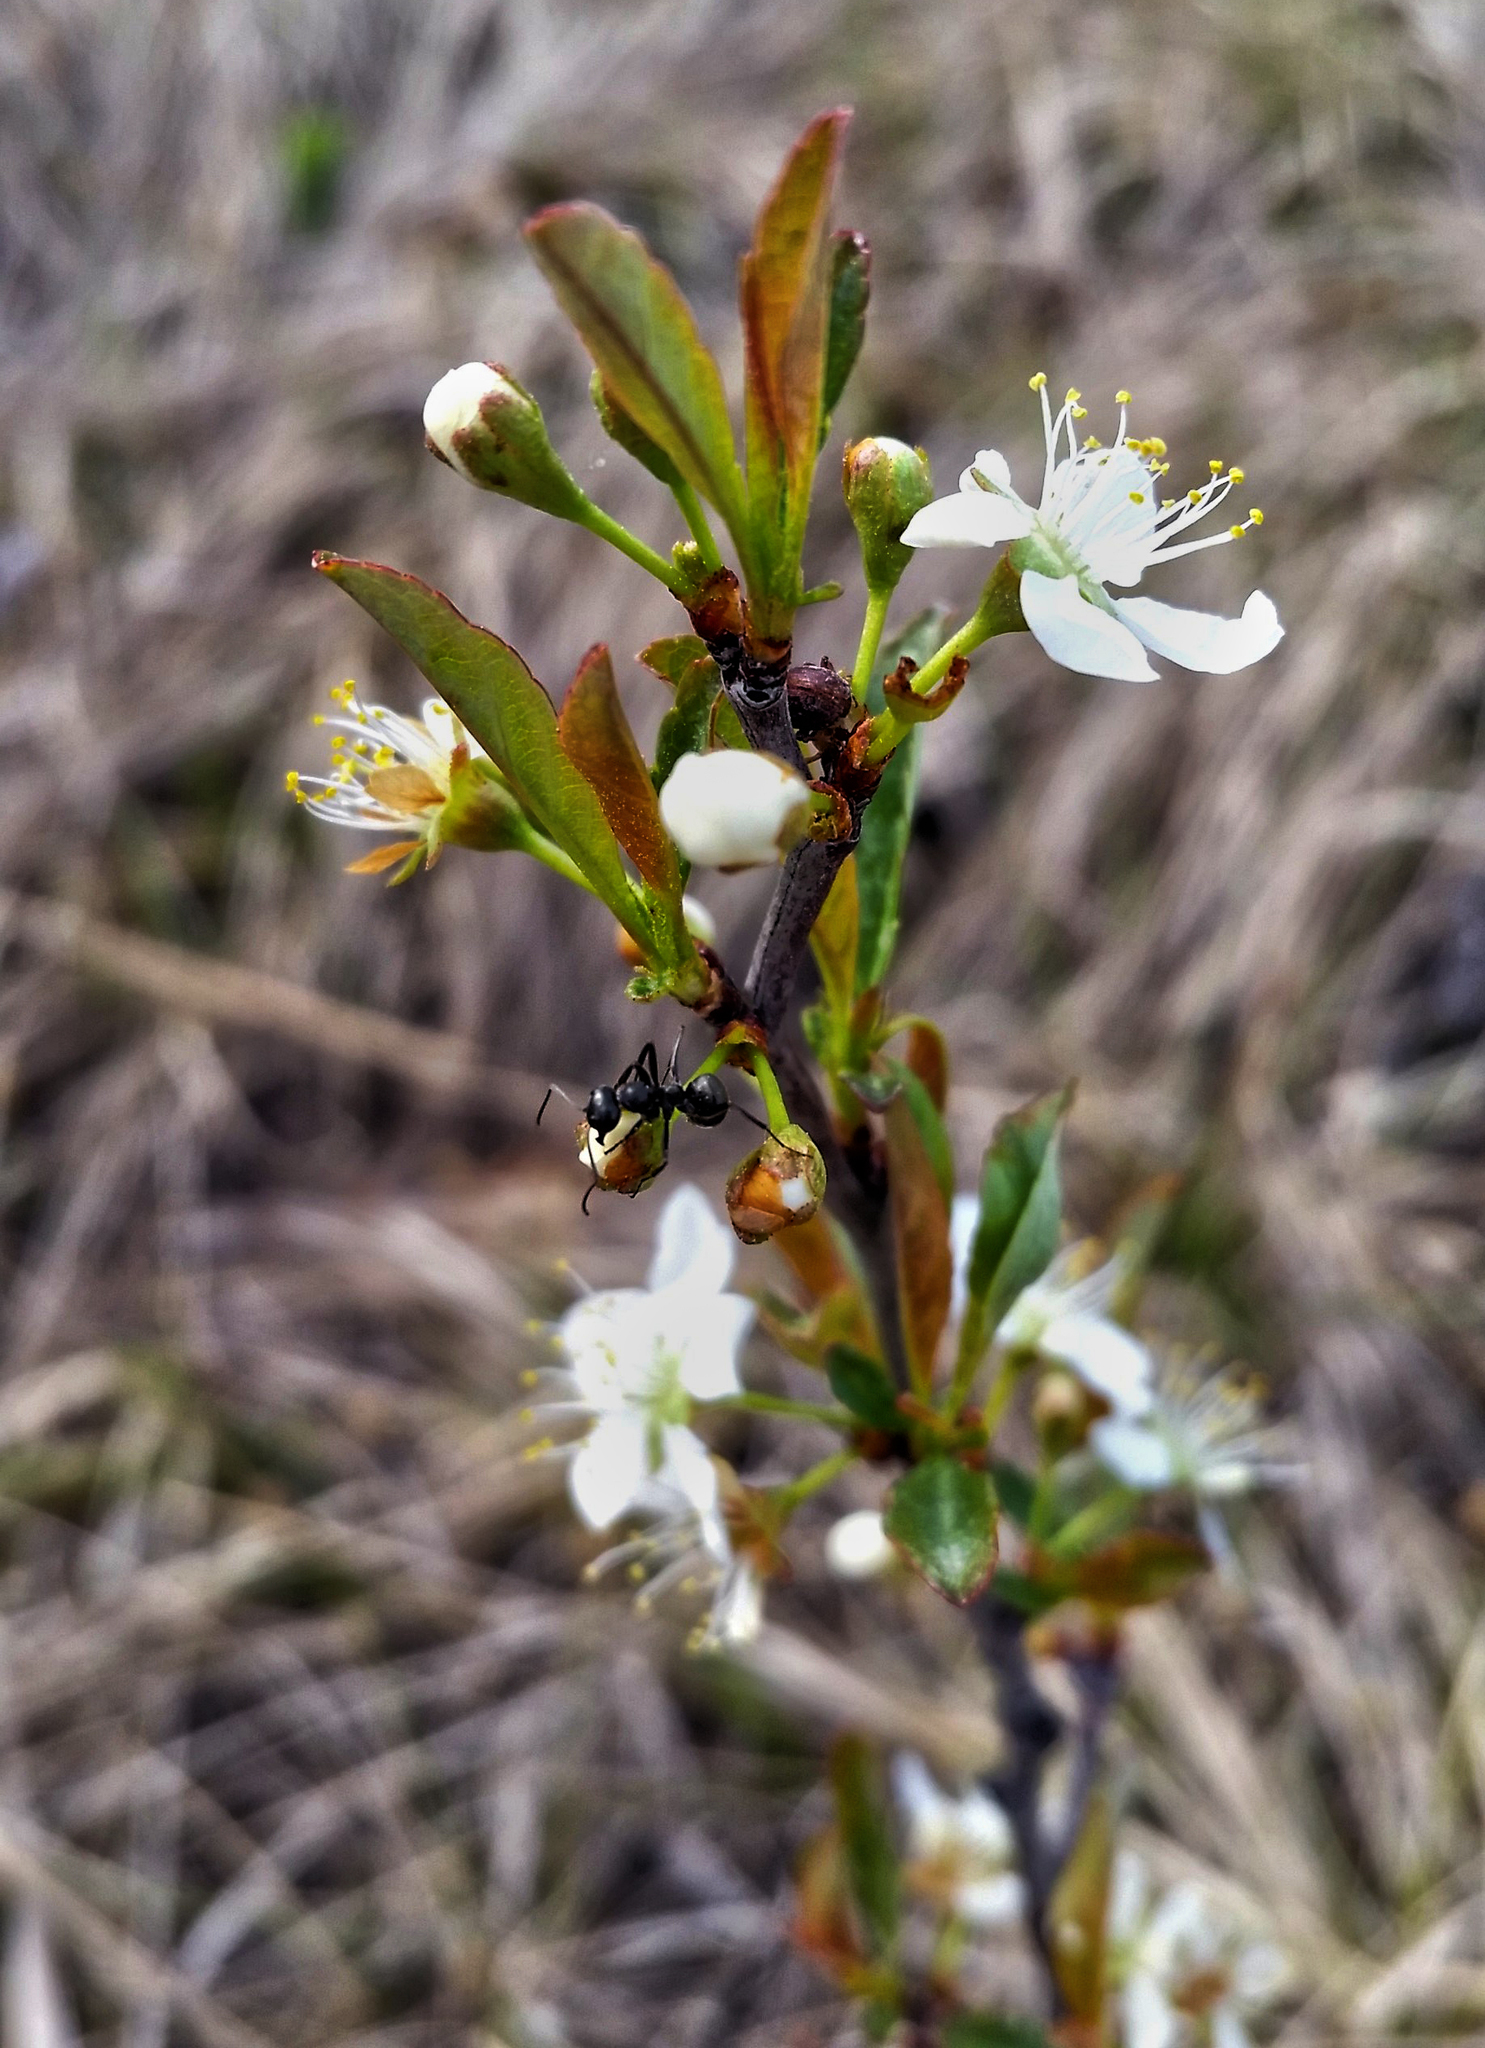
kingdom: Plantae
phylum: Tracheophyta
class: Magnoliopsida
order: Rosales
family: Rosaceae
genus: Prunus
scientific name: Prunus pumila
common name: Dwarf cherry
